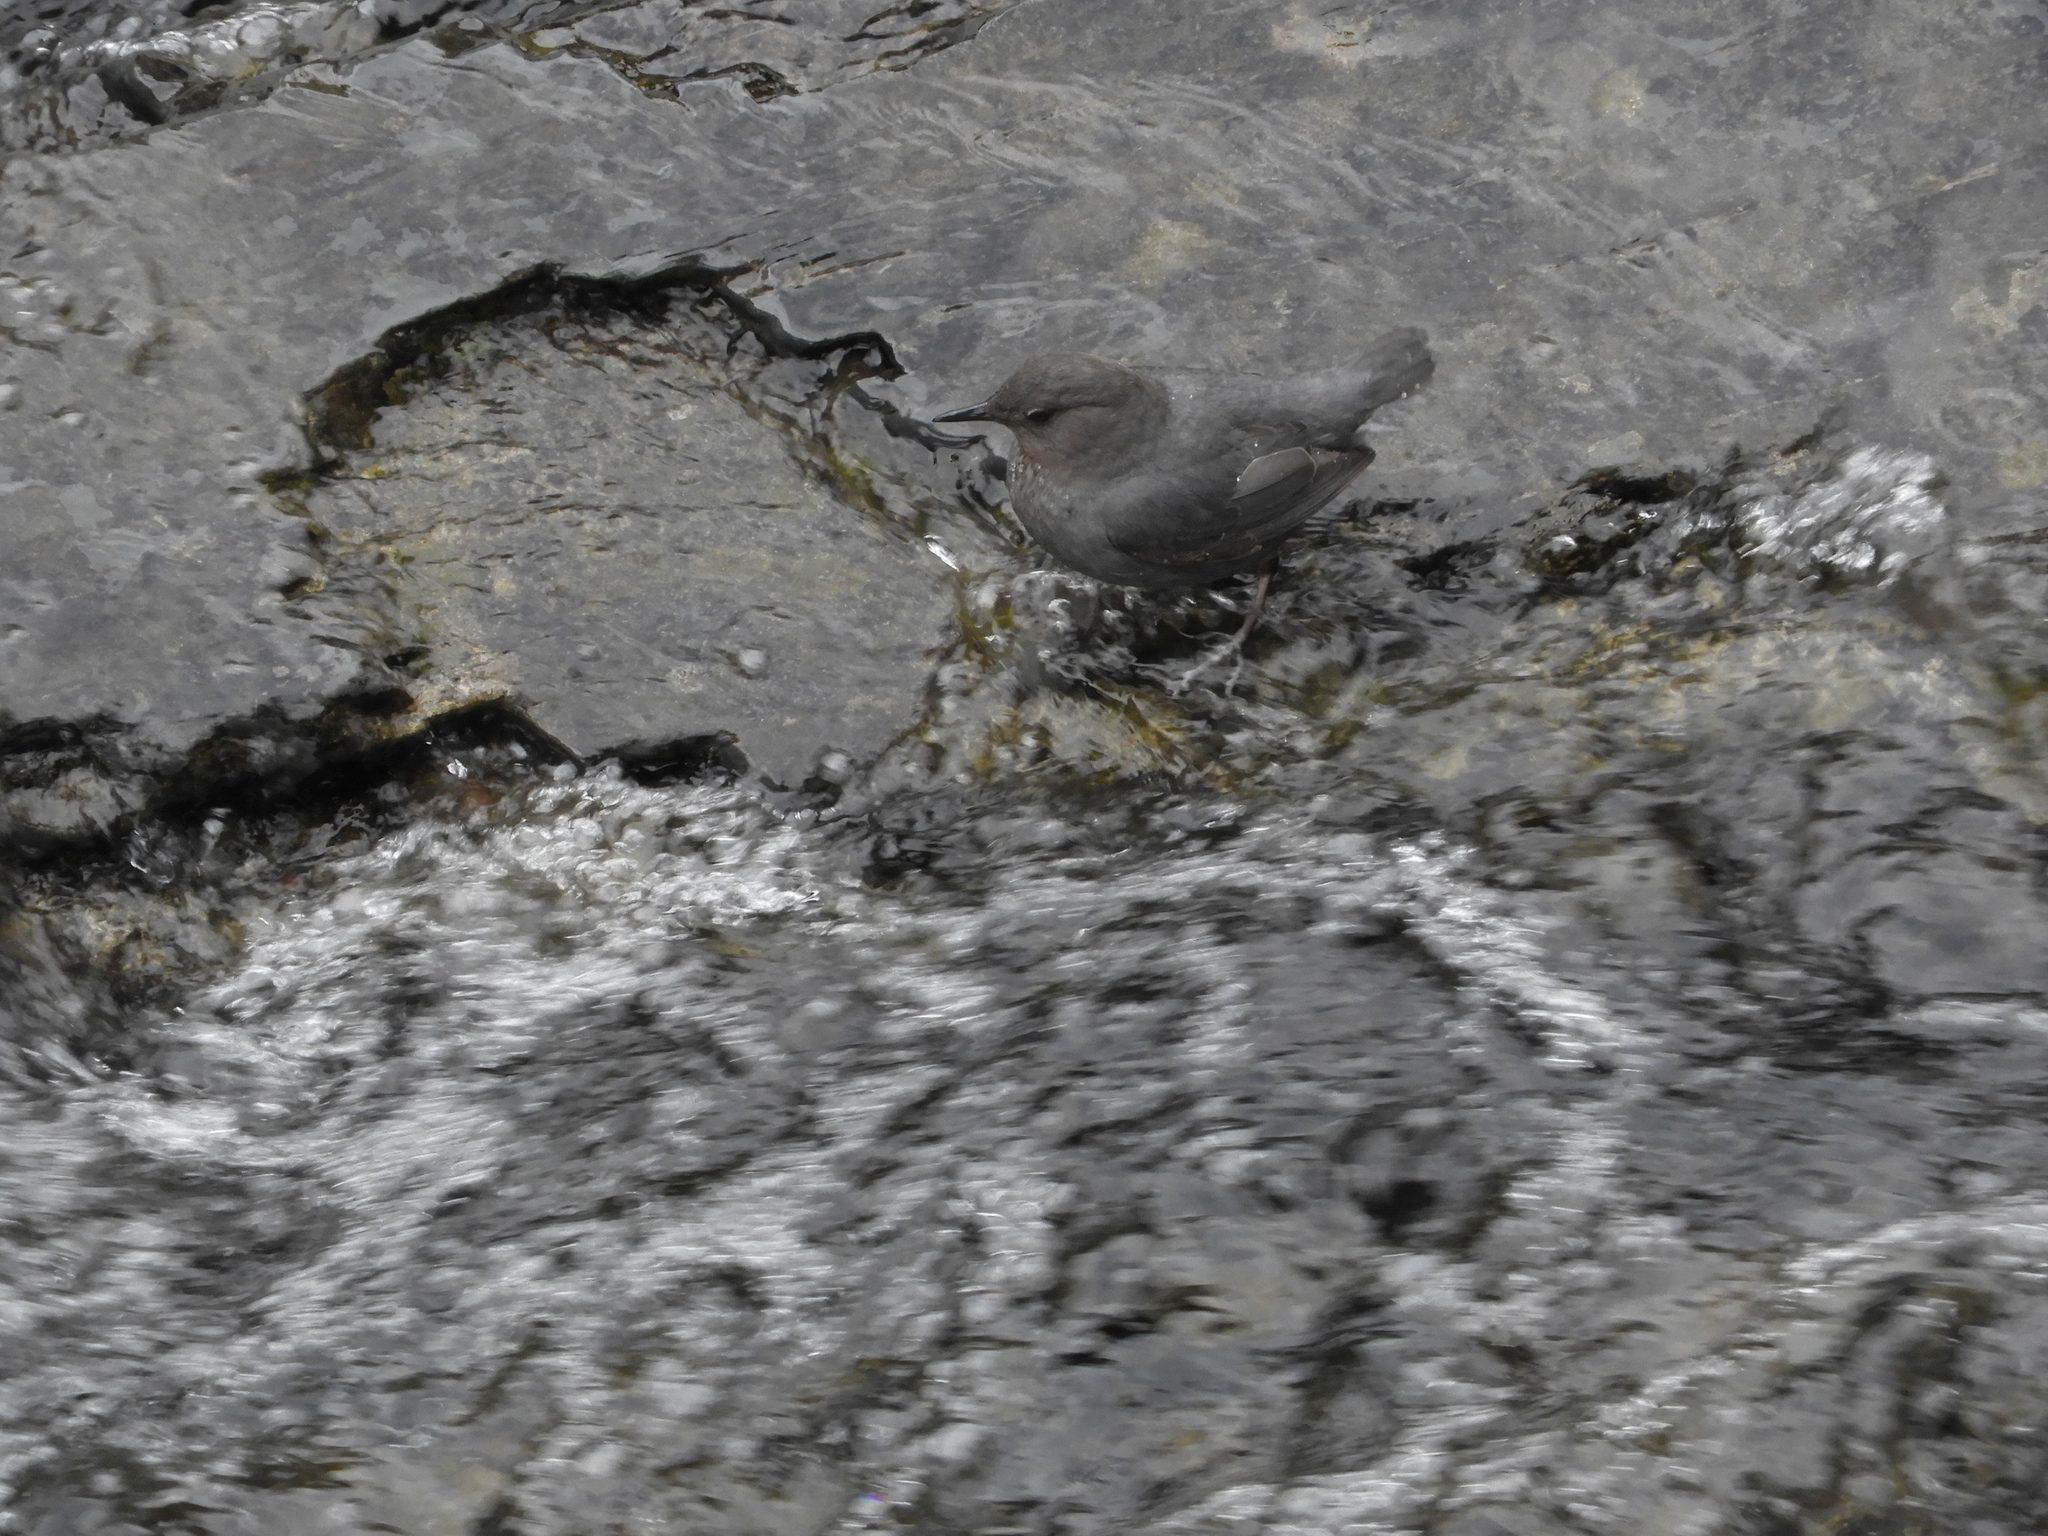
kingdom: Animalia
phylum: Chordata
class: Aves
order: Passeriformes
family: Cinclidae
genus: Cinclus
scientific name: Cinclus mexicanus
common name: American dipper
